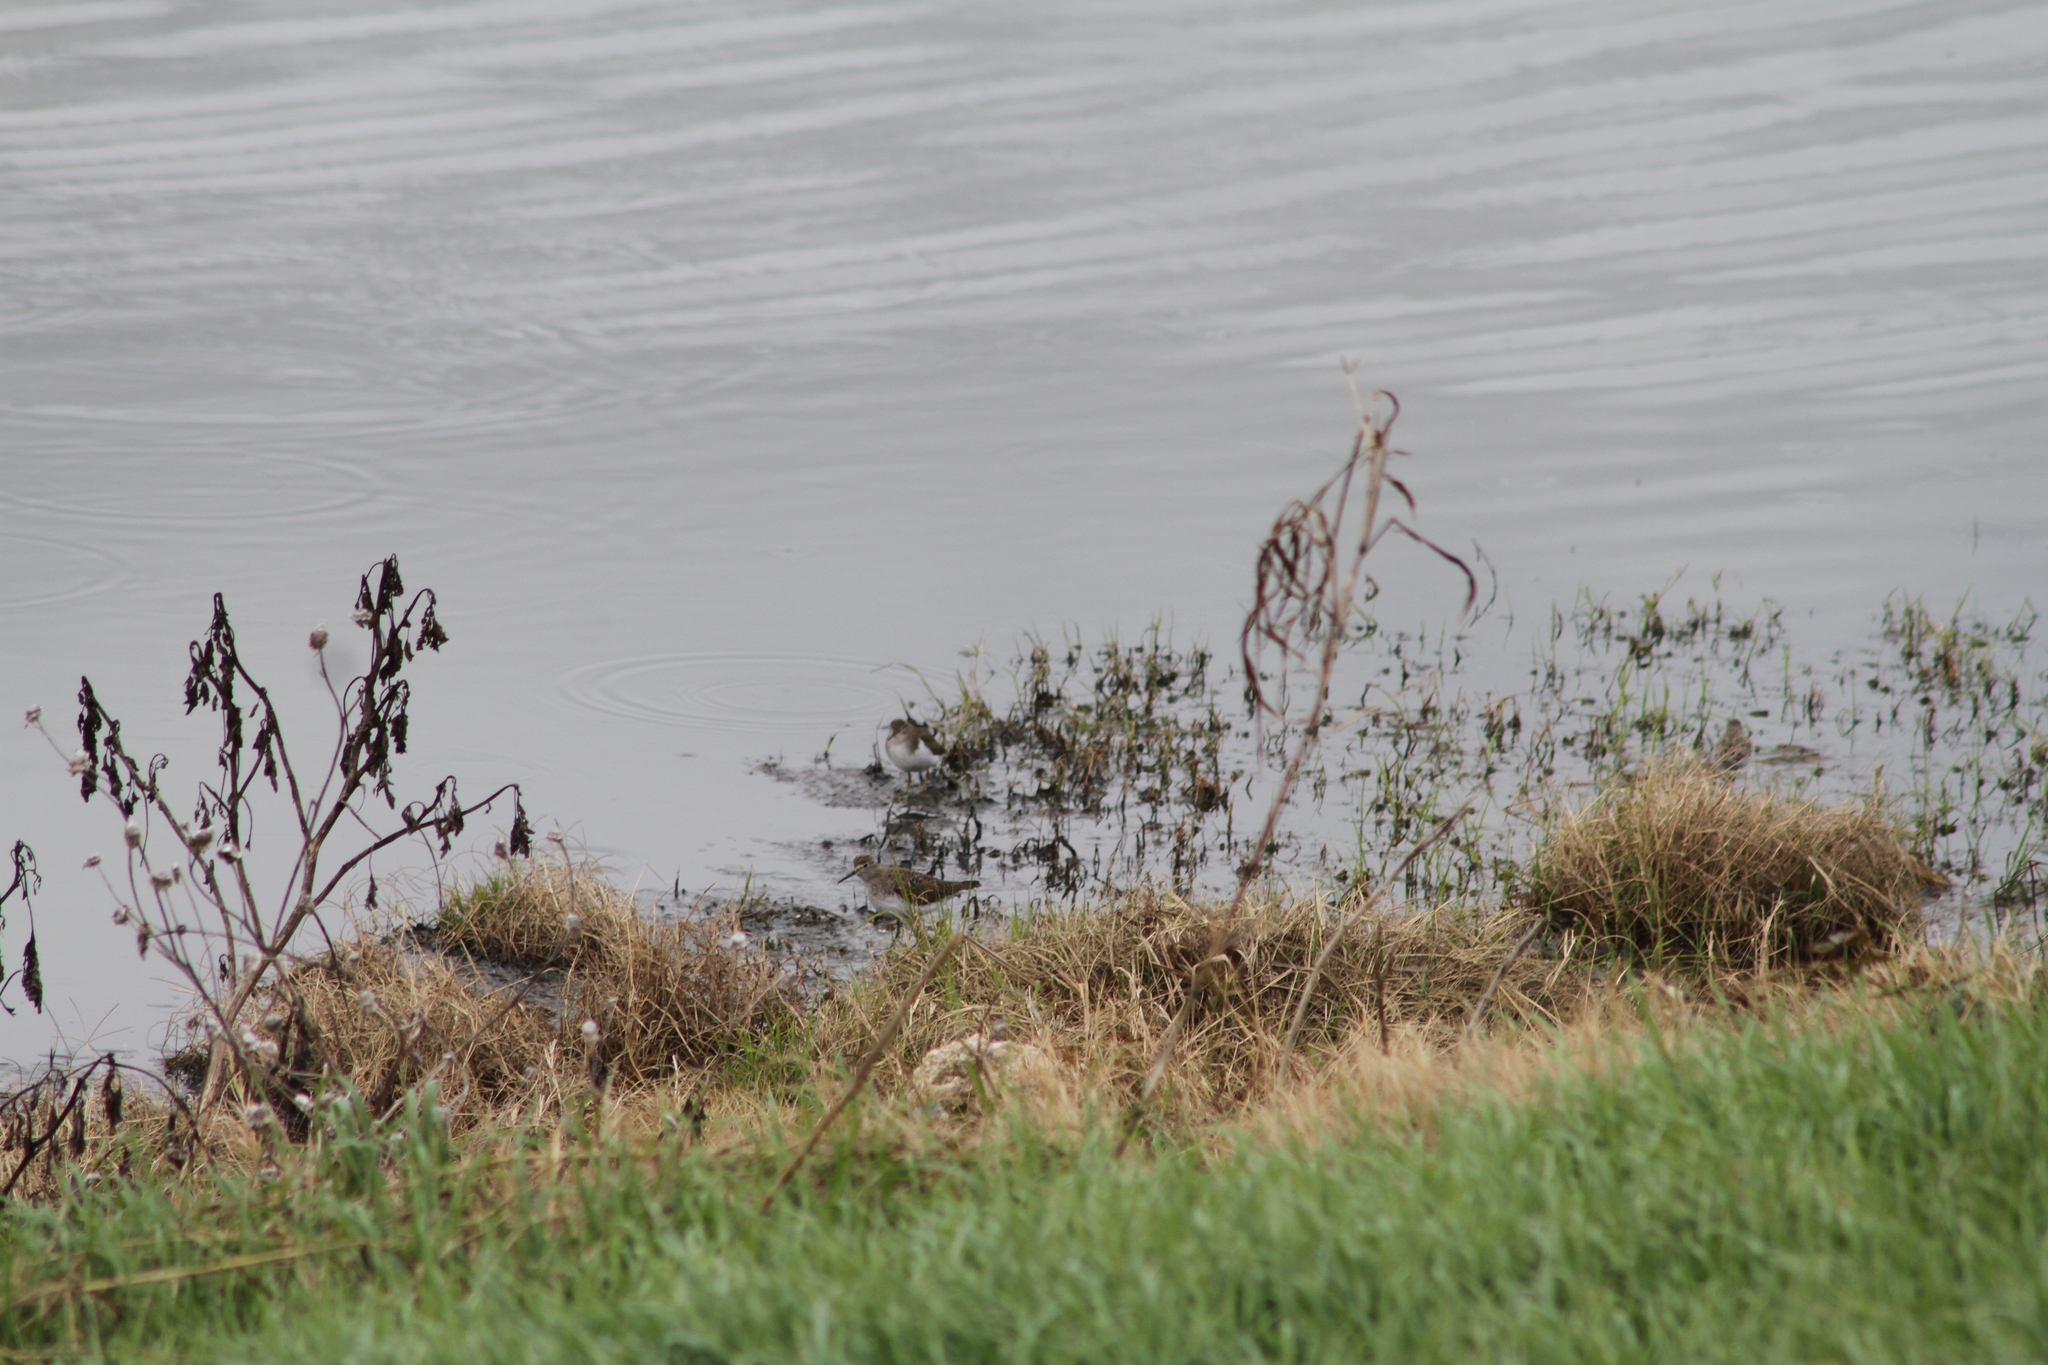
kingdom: Animalia
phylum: Chordata
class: Aves
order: Charadriiformes
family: Scolopacidae
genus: Tringa
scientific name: Tringa solitaria
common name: Solitary sandpiper
